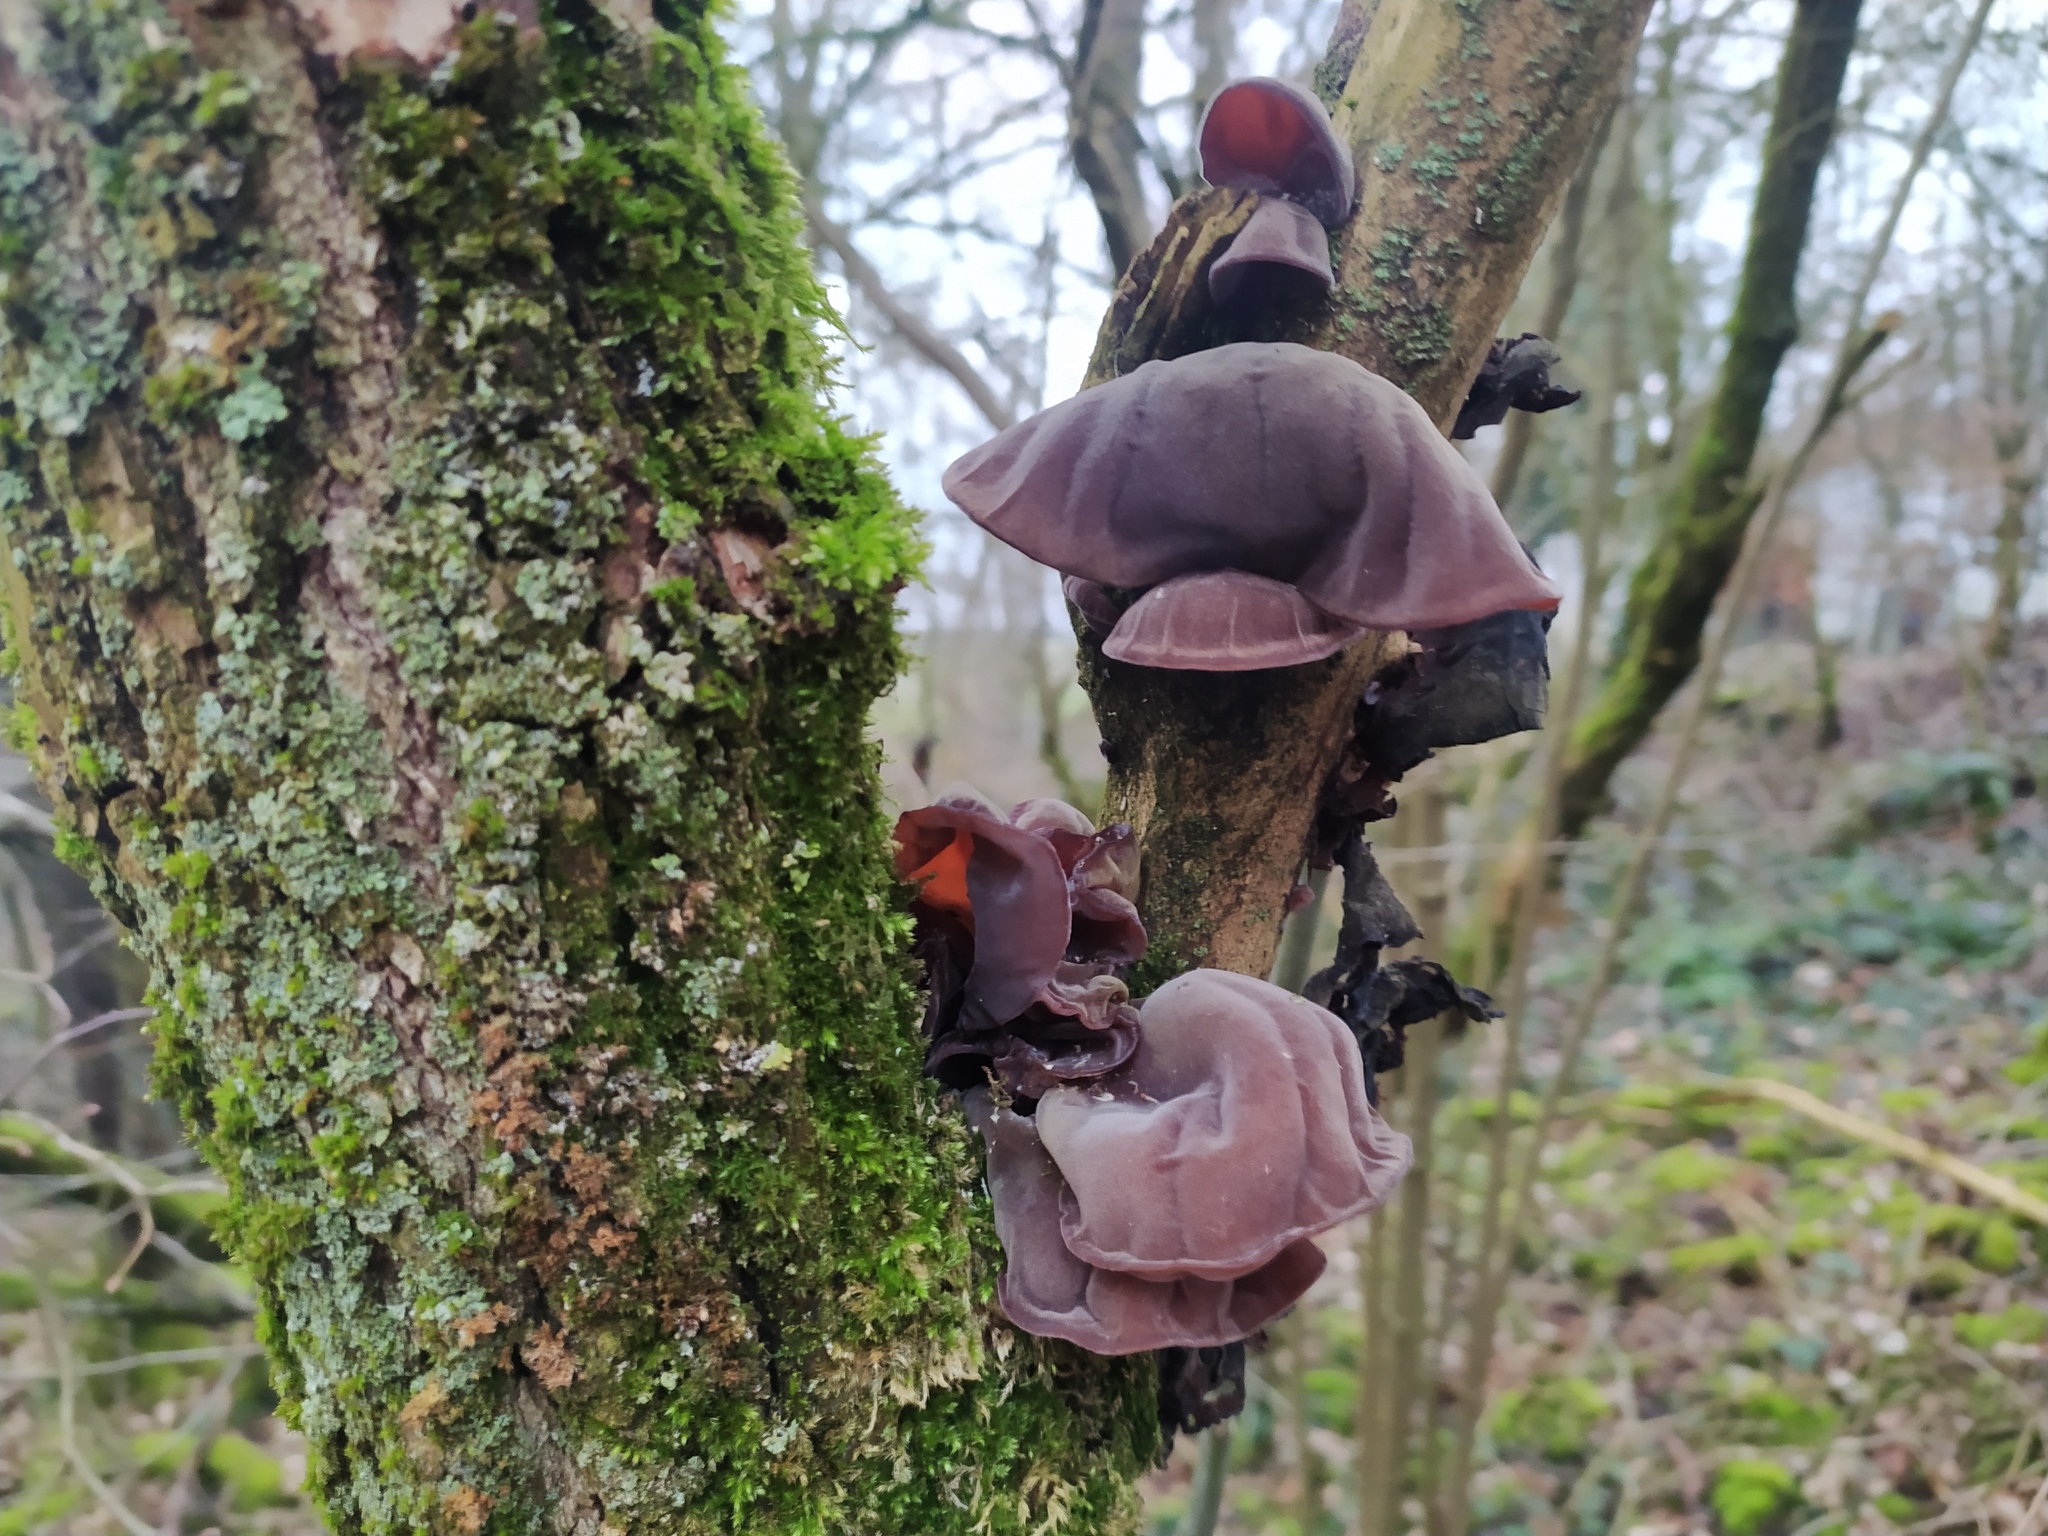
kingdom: Fungi
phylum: Basidiomycota
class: Agaricomycetes
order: Auriculariales
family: Auriculariaceae
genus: Auricularia
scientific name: Auricularia auricula-judae
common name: Jelly ear
